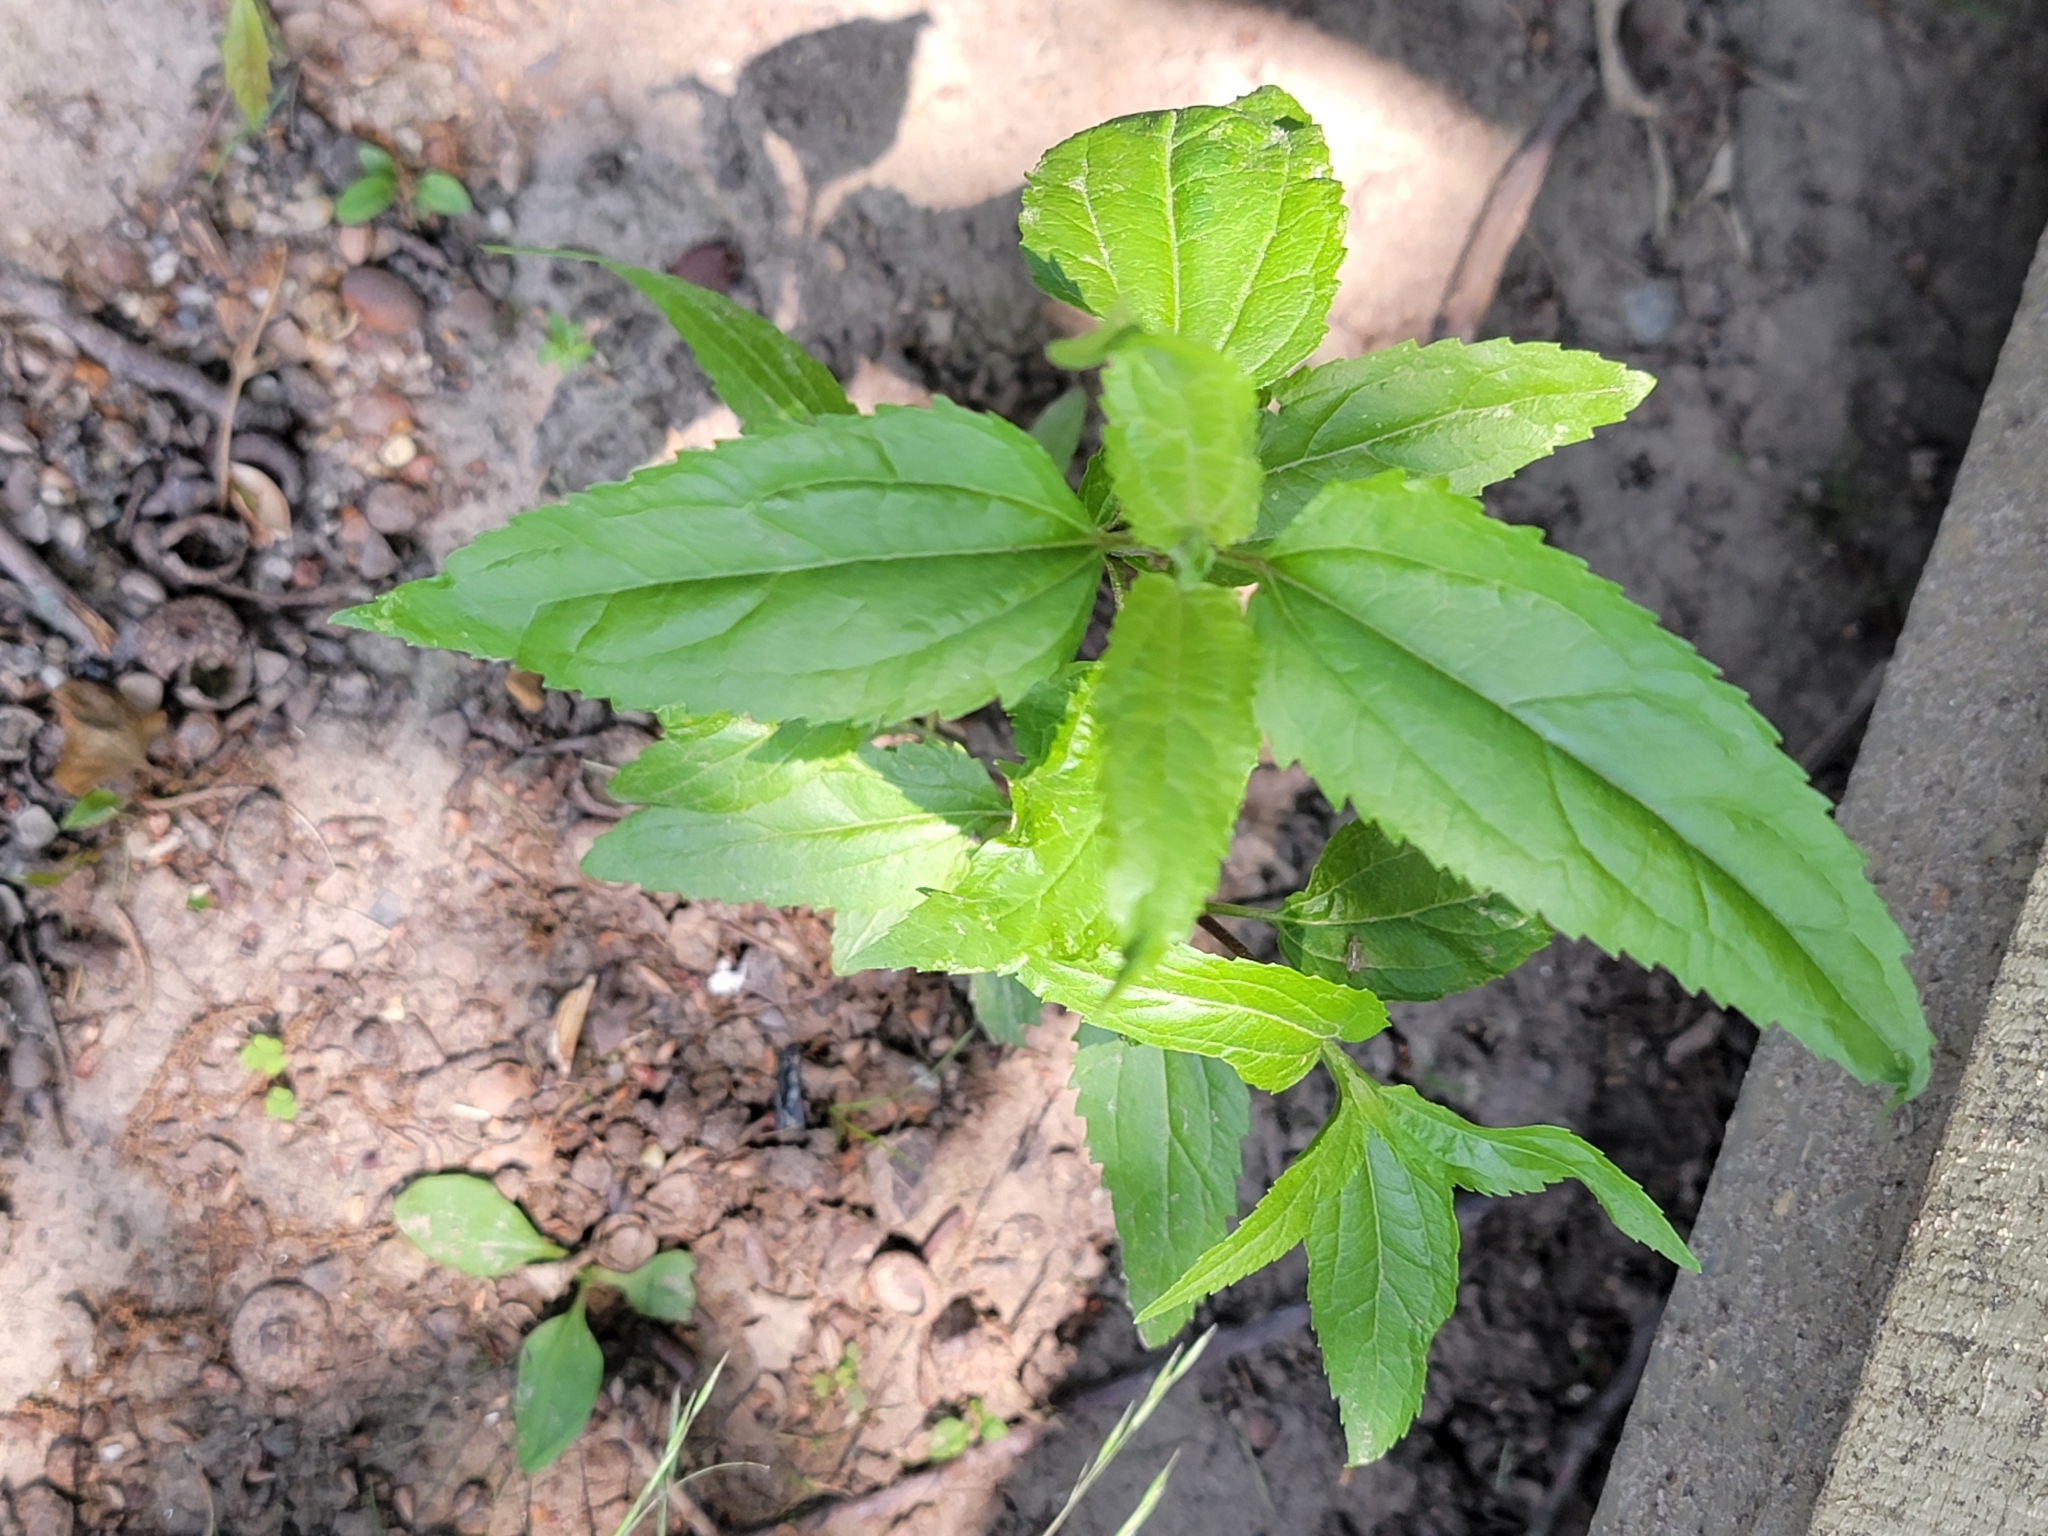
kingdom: Plantae
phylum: Tracheophyta
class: Magnoliopsida
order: Asterales
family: Asteraceae
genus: Eupatorium
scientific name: Eupatorium serotinum
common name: Late boneset
